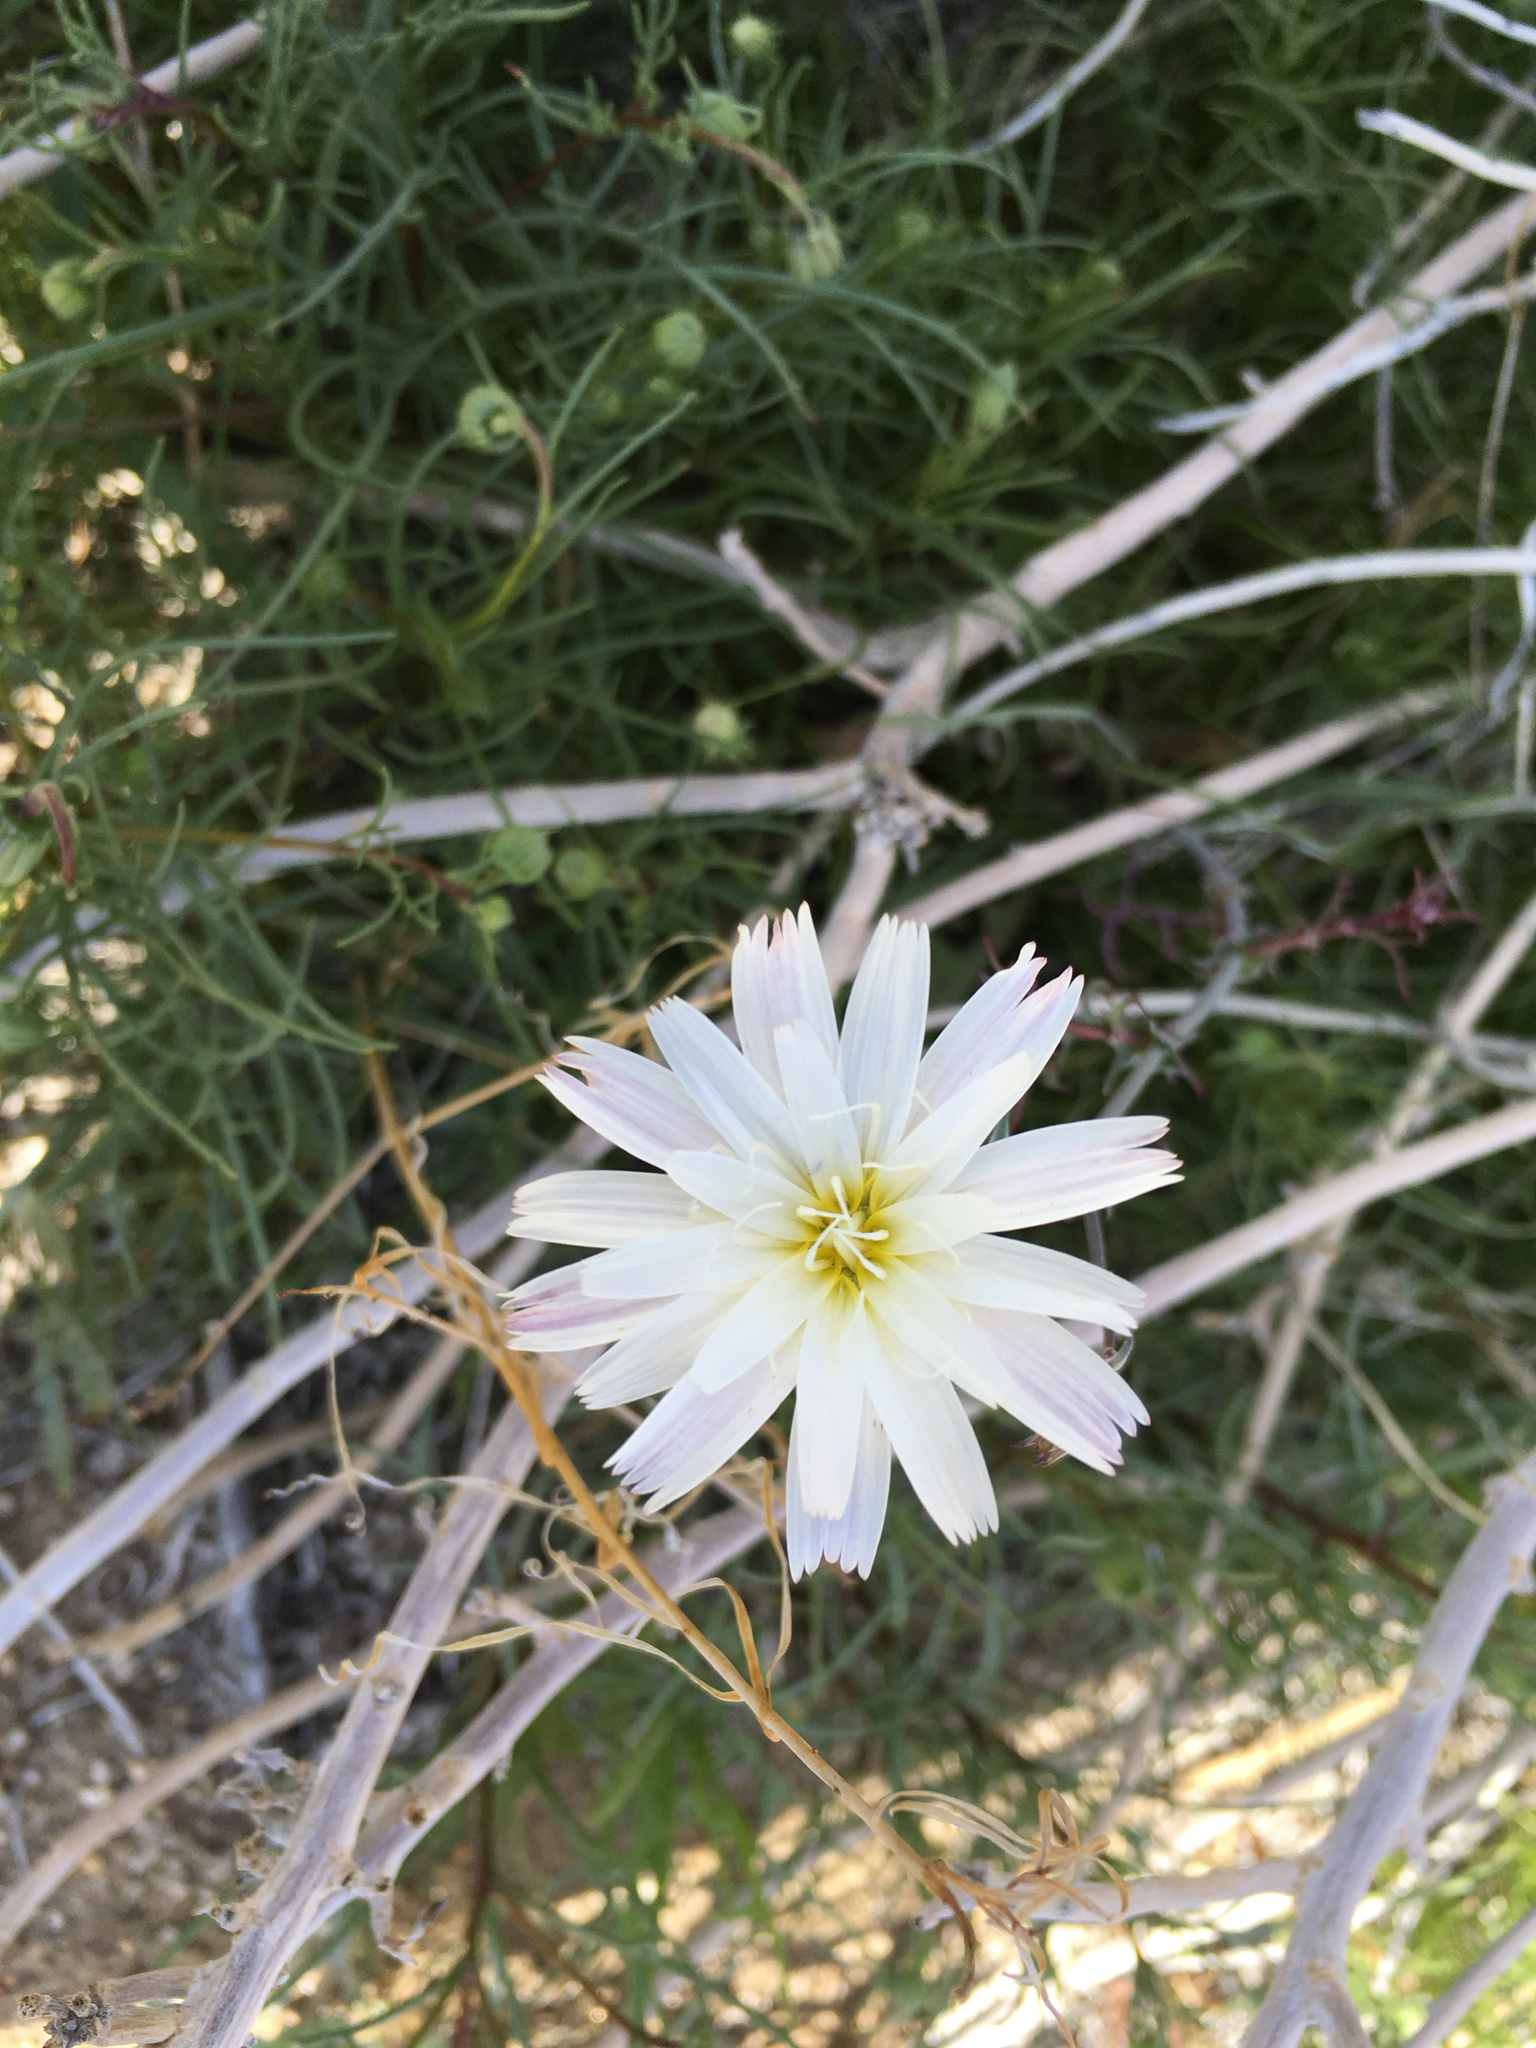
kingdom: Plantae
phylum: Tracheophyta
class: Magnoliopsida
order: Asterales
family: Asteraceae
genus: Rafinesquia
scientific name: Rafinesquia neomexicana
